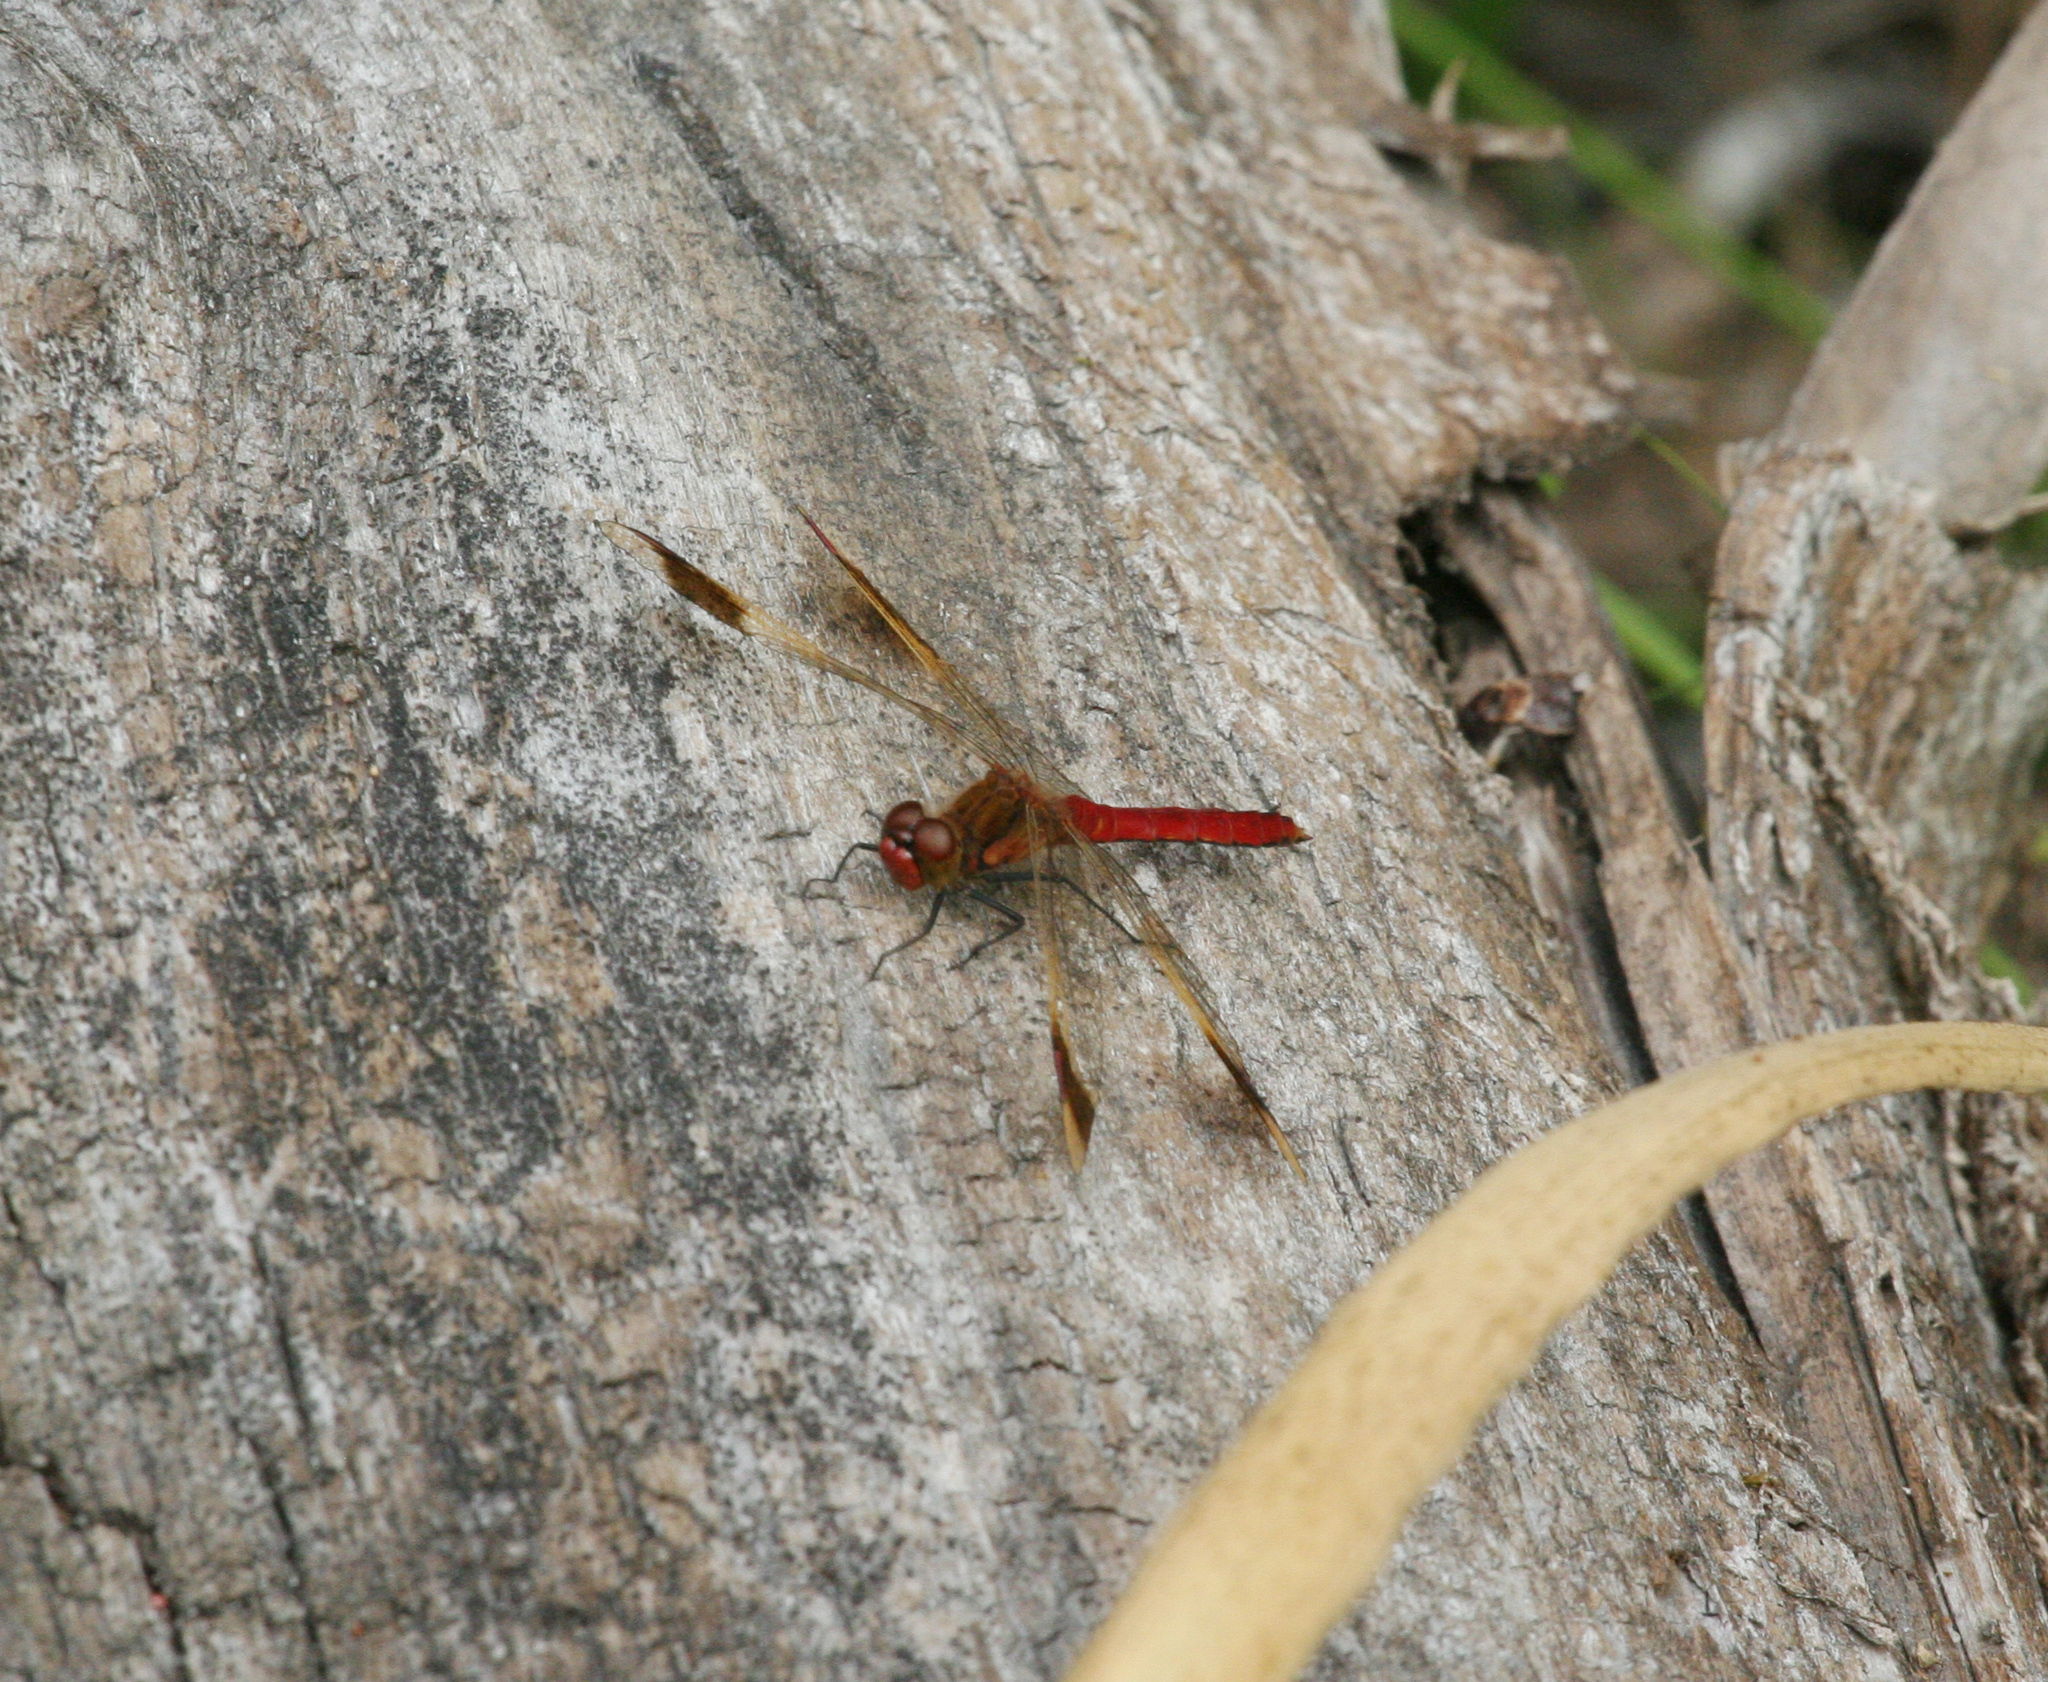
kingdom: Animalia
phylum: Arthropoda
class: Insecta
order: Odonata
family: Libellulidae
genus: Sympetrum
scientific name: Sympetrum pedemontanum
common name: Banded darter
